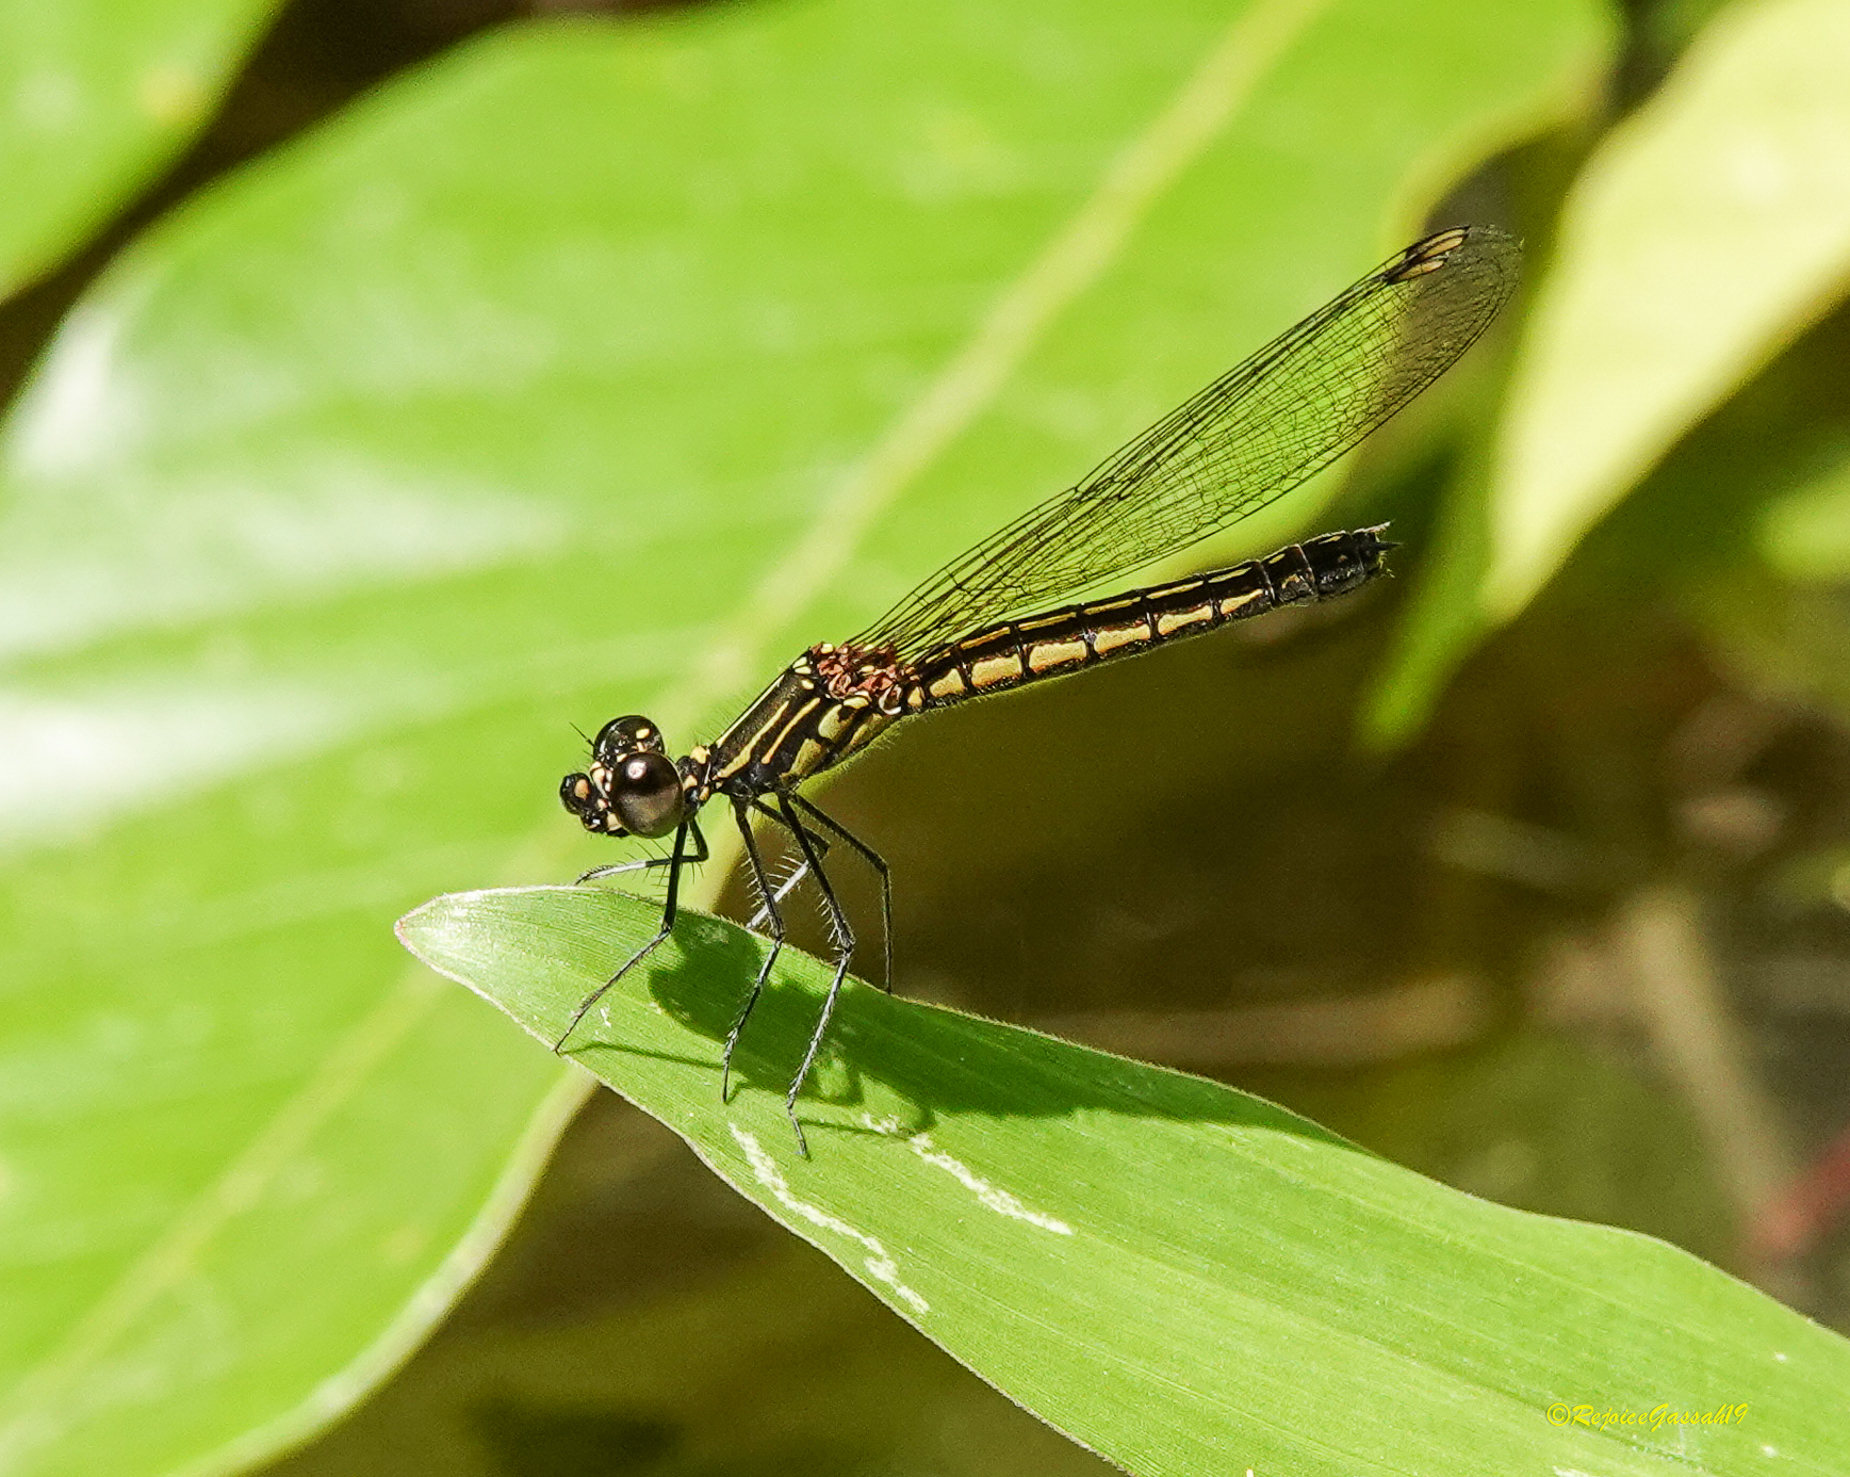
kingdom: Animalia
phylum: Arthropoda
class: Insecta
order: Odonata
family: Chlorocyphidae
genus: Libellago
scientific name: Libellago lineata
